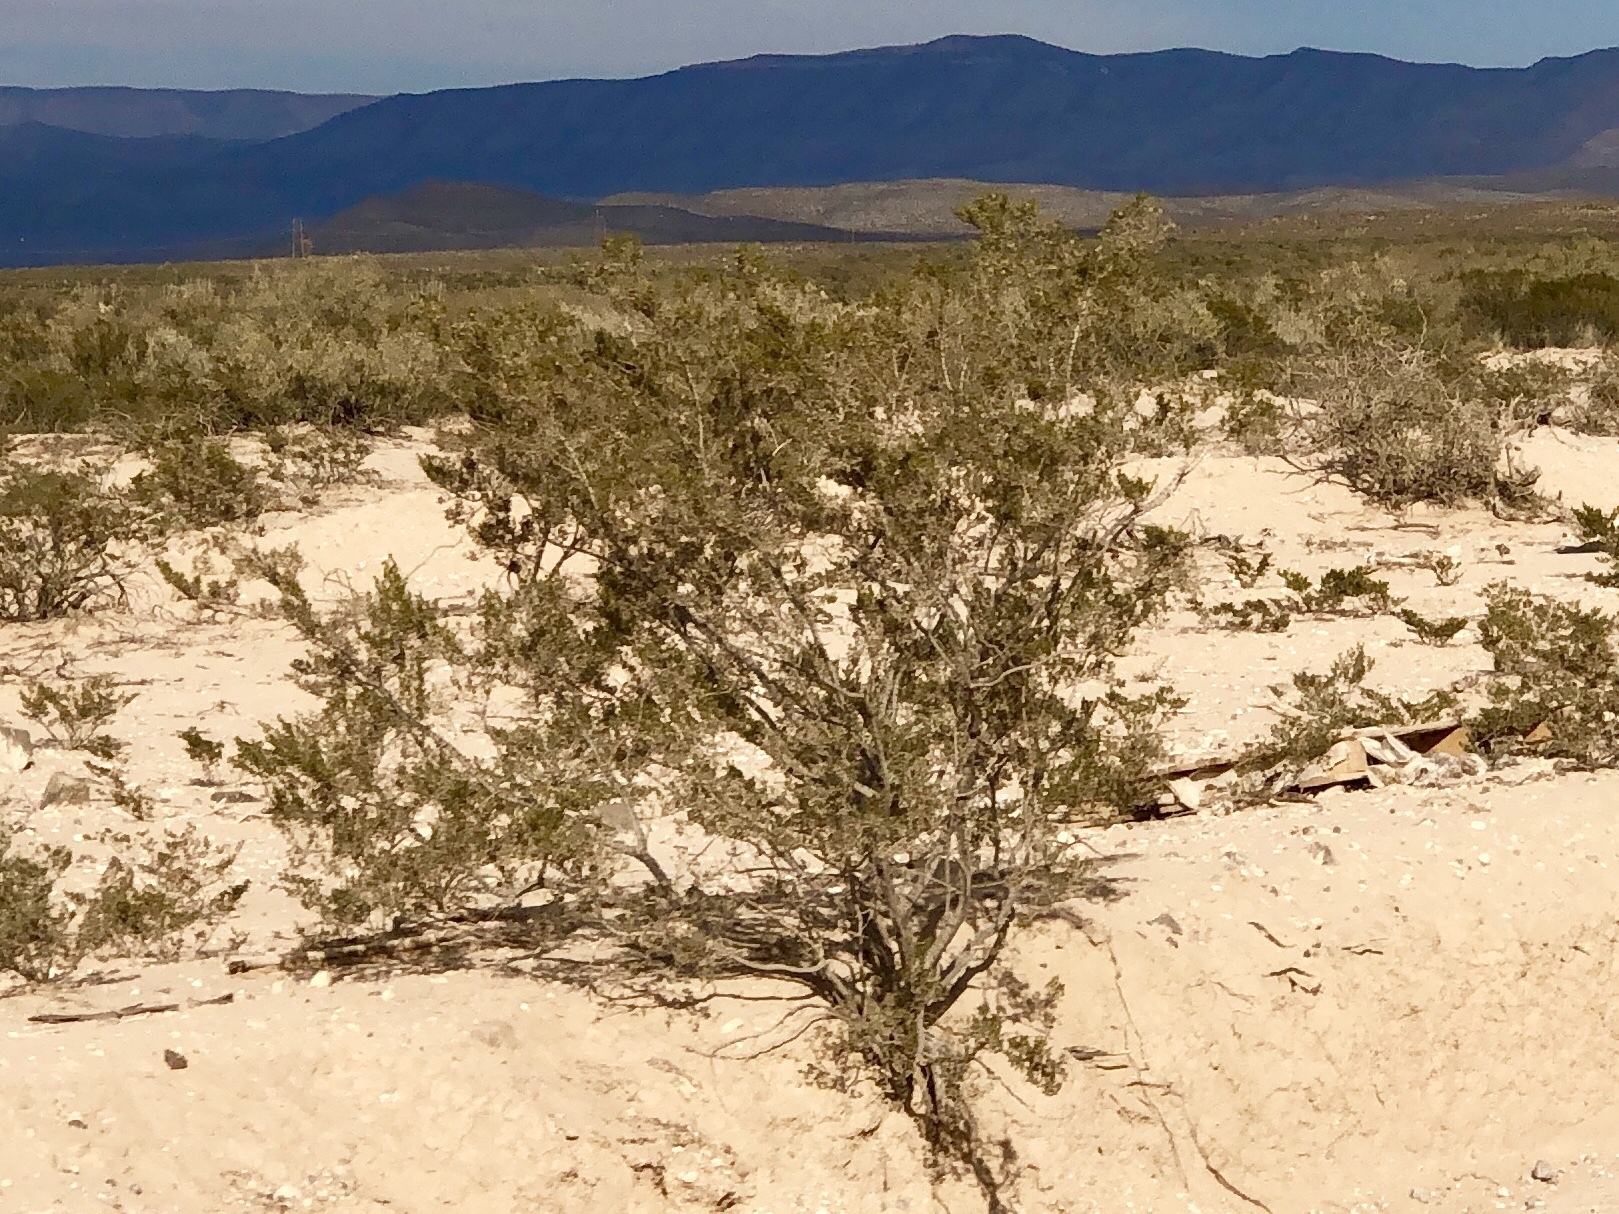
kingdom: Plantae
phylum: Tracheophyta
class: Magnoliopsida
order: Zygophyllales
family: Zygophyllaceae
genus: Larrea
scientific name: Larrea tridentata
